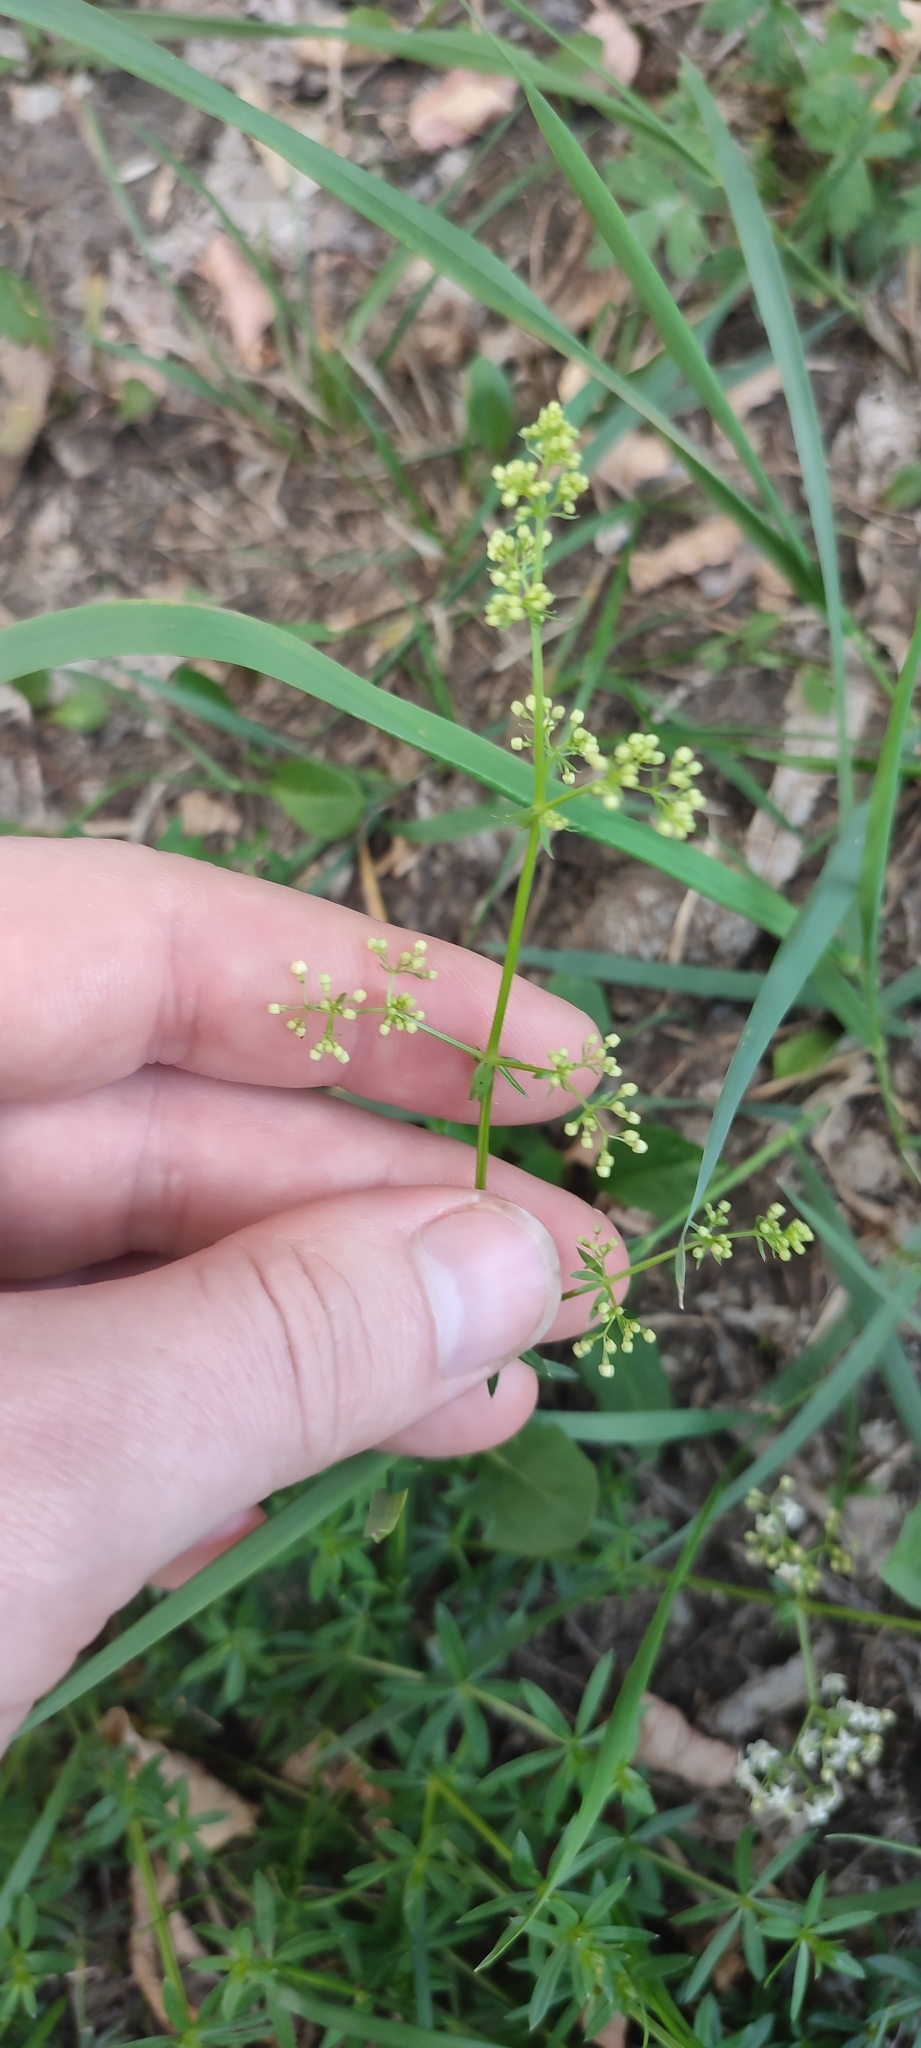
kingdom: Plantae
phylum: Tracheophyta
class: Magnoliopsida
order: Gentianales
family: Rubiaceae
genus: Galium
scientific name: Galium mollugo
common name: Hedge bedstraw
